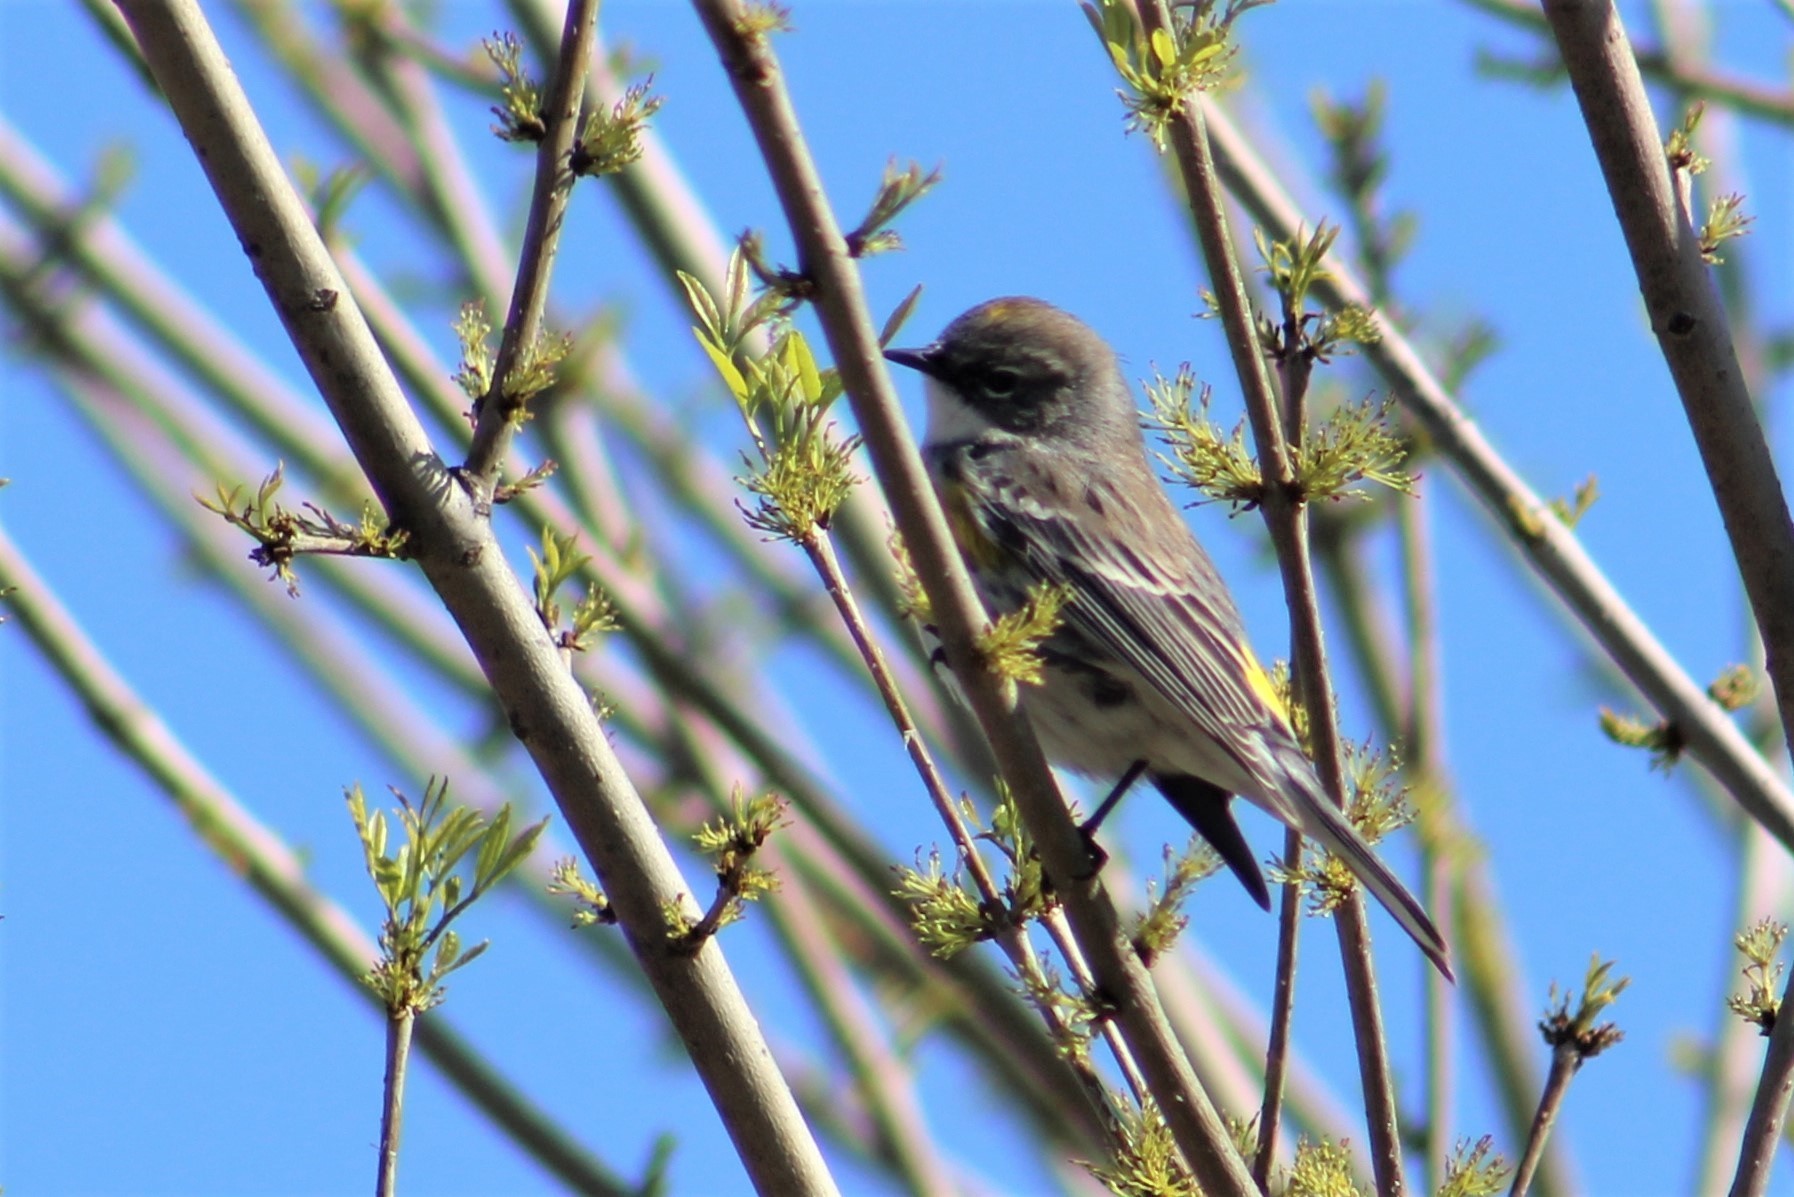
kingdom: Animalia
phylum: Chordata
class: Aves
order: Passeriformes
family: Parulidae
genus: Setophaga
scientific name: Setophaga coronata
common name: Myrtle warbler
